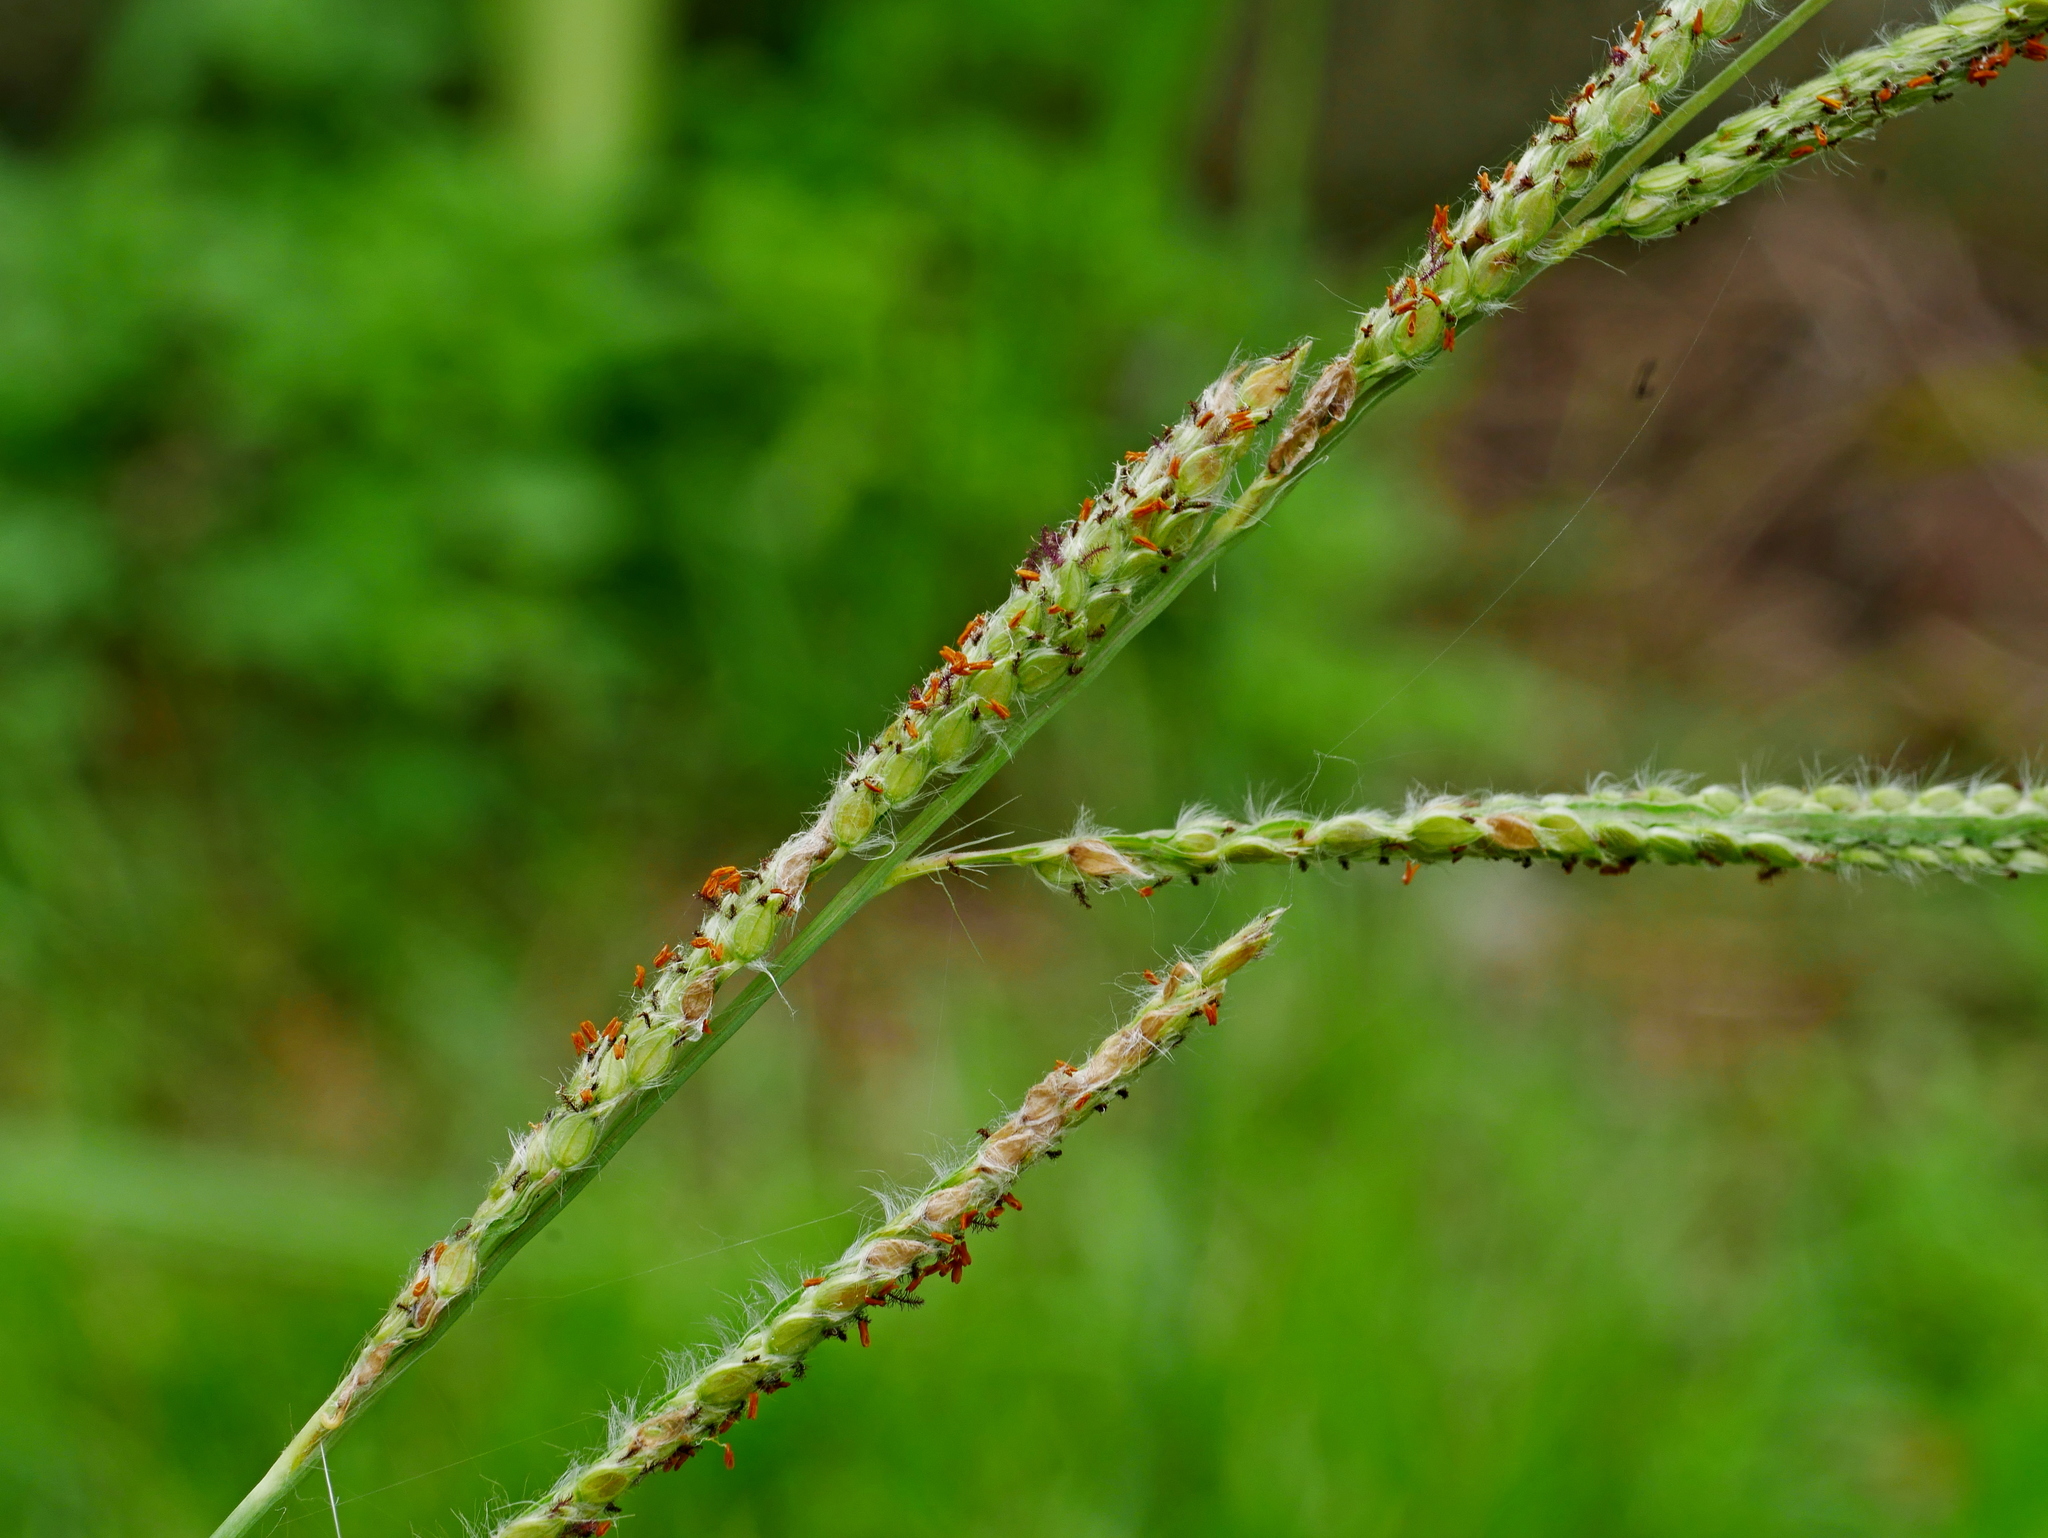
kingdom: Plantae
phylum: Tracheophyta
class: Liliopsida
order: Poales
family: Poaceae
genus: Paspalum
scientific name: Paspalum urvillei
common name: Vasey's grass
